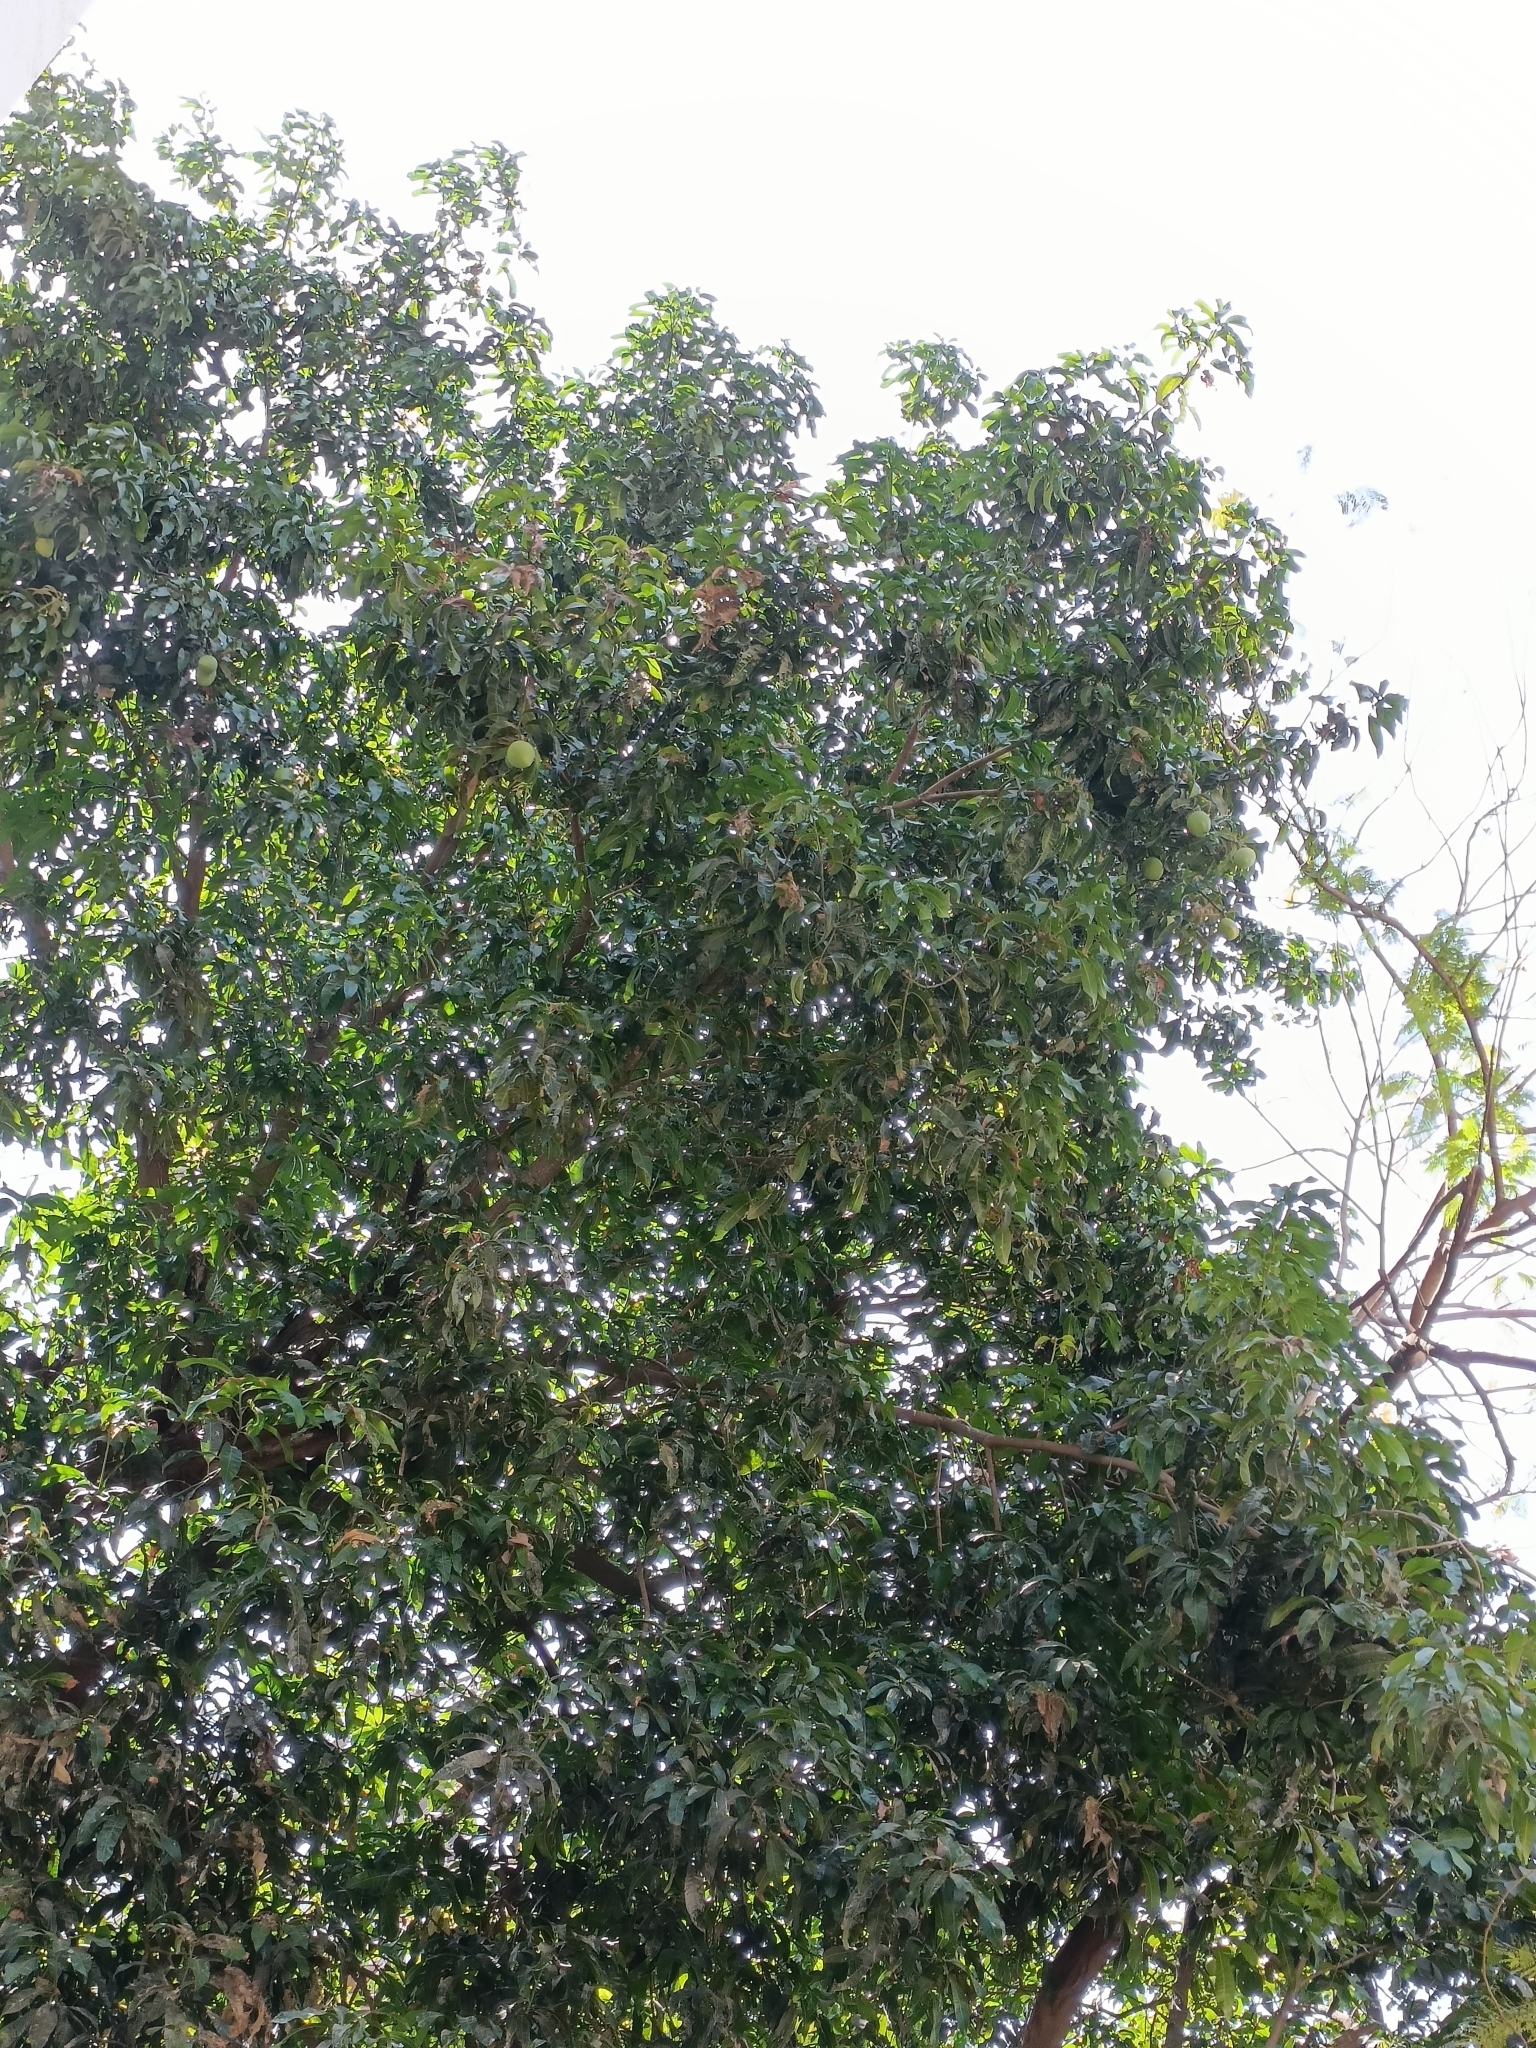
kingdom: Plantae
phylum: Tracheophyta
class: Magnoliopsida
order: Sapindales
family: Anacardiaceae
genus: Mangifera
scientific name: Mangifera indica
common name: Mango
